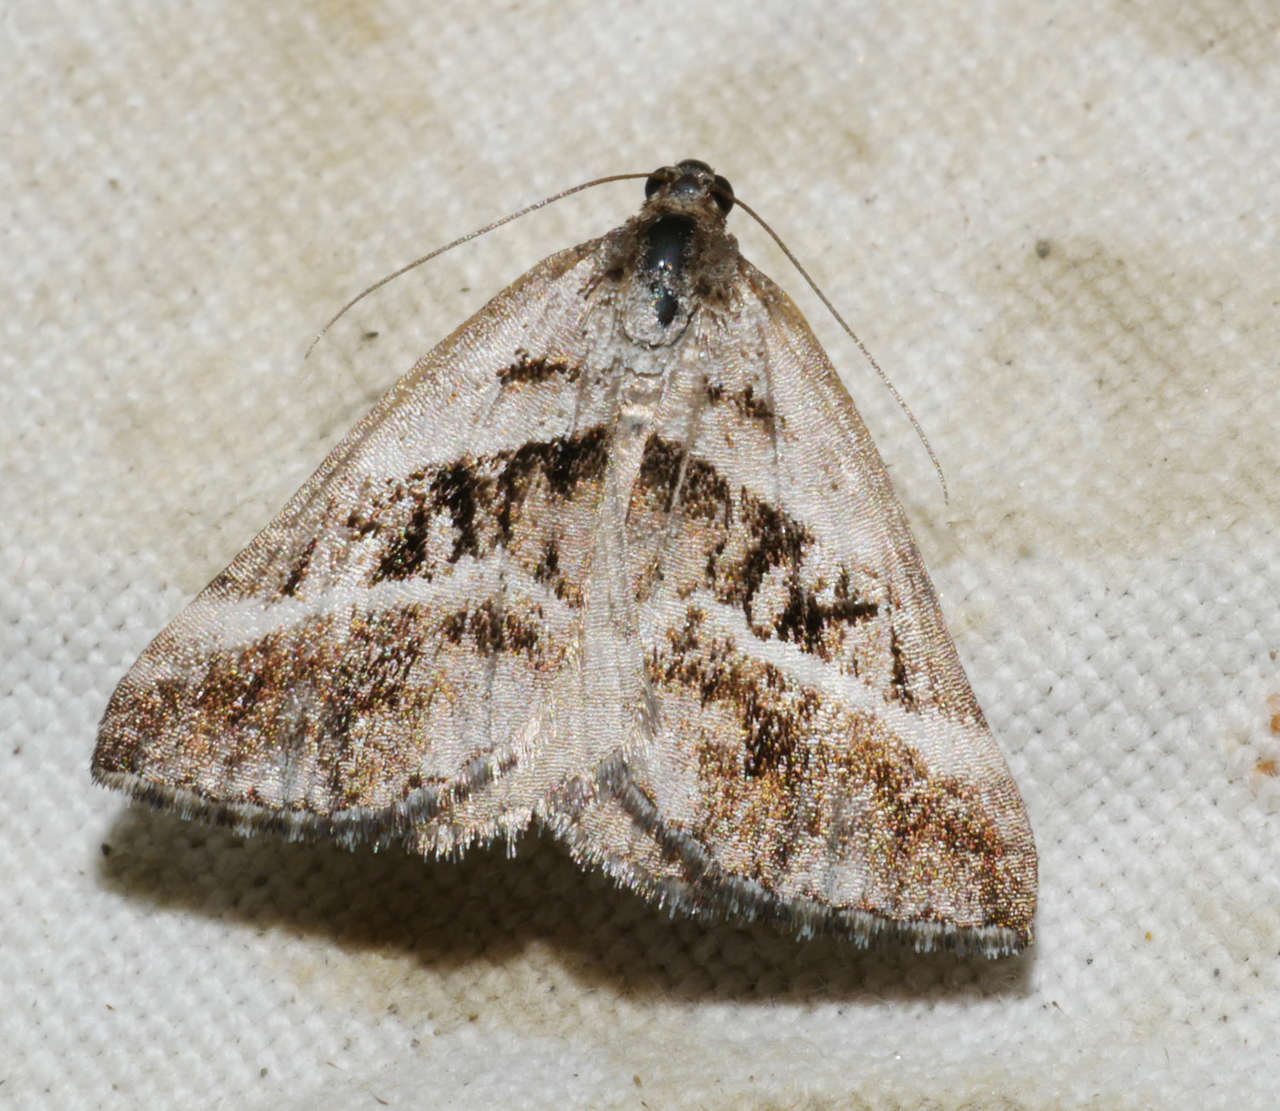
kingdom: Animalia
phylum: Arthropoda
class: Insecta
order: Lepidoptera
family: Geometridae
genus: Dichromodes
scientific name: Dichromodes stilbiata
